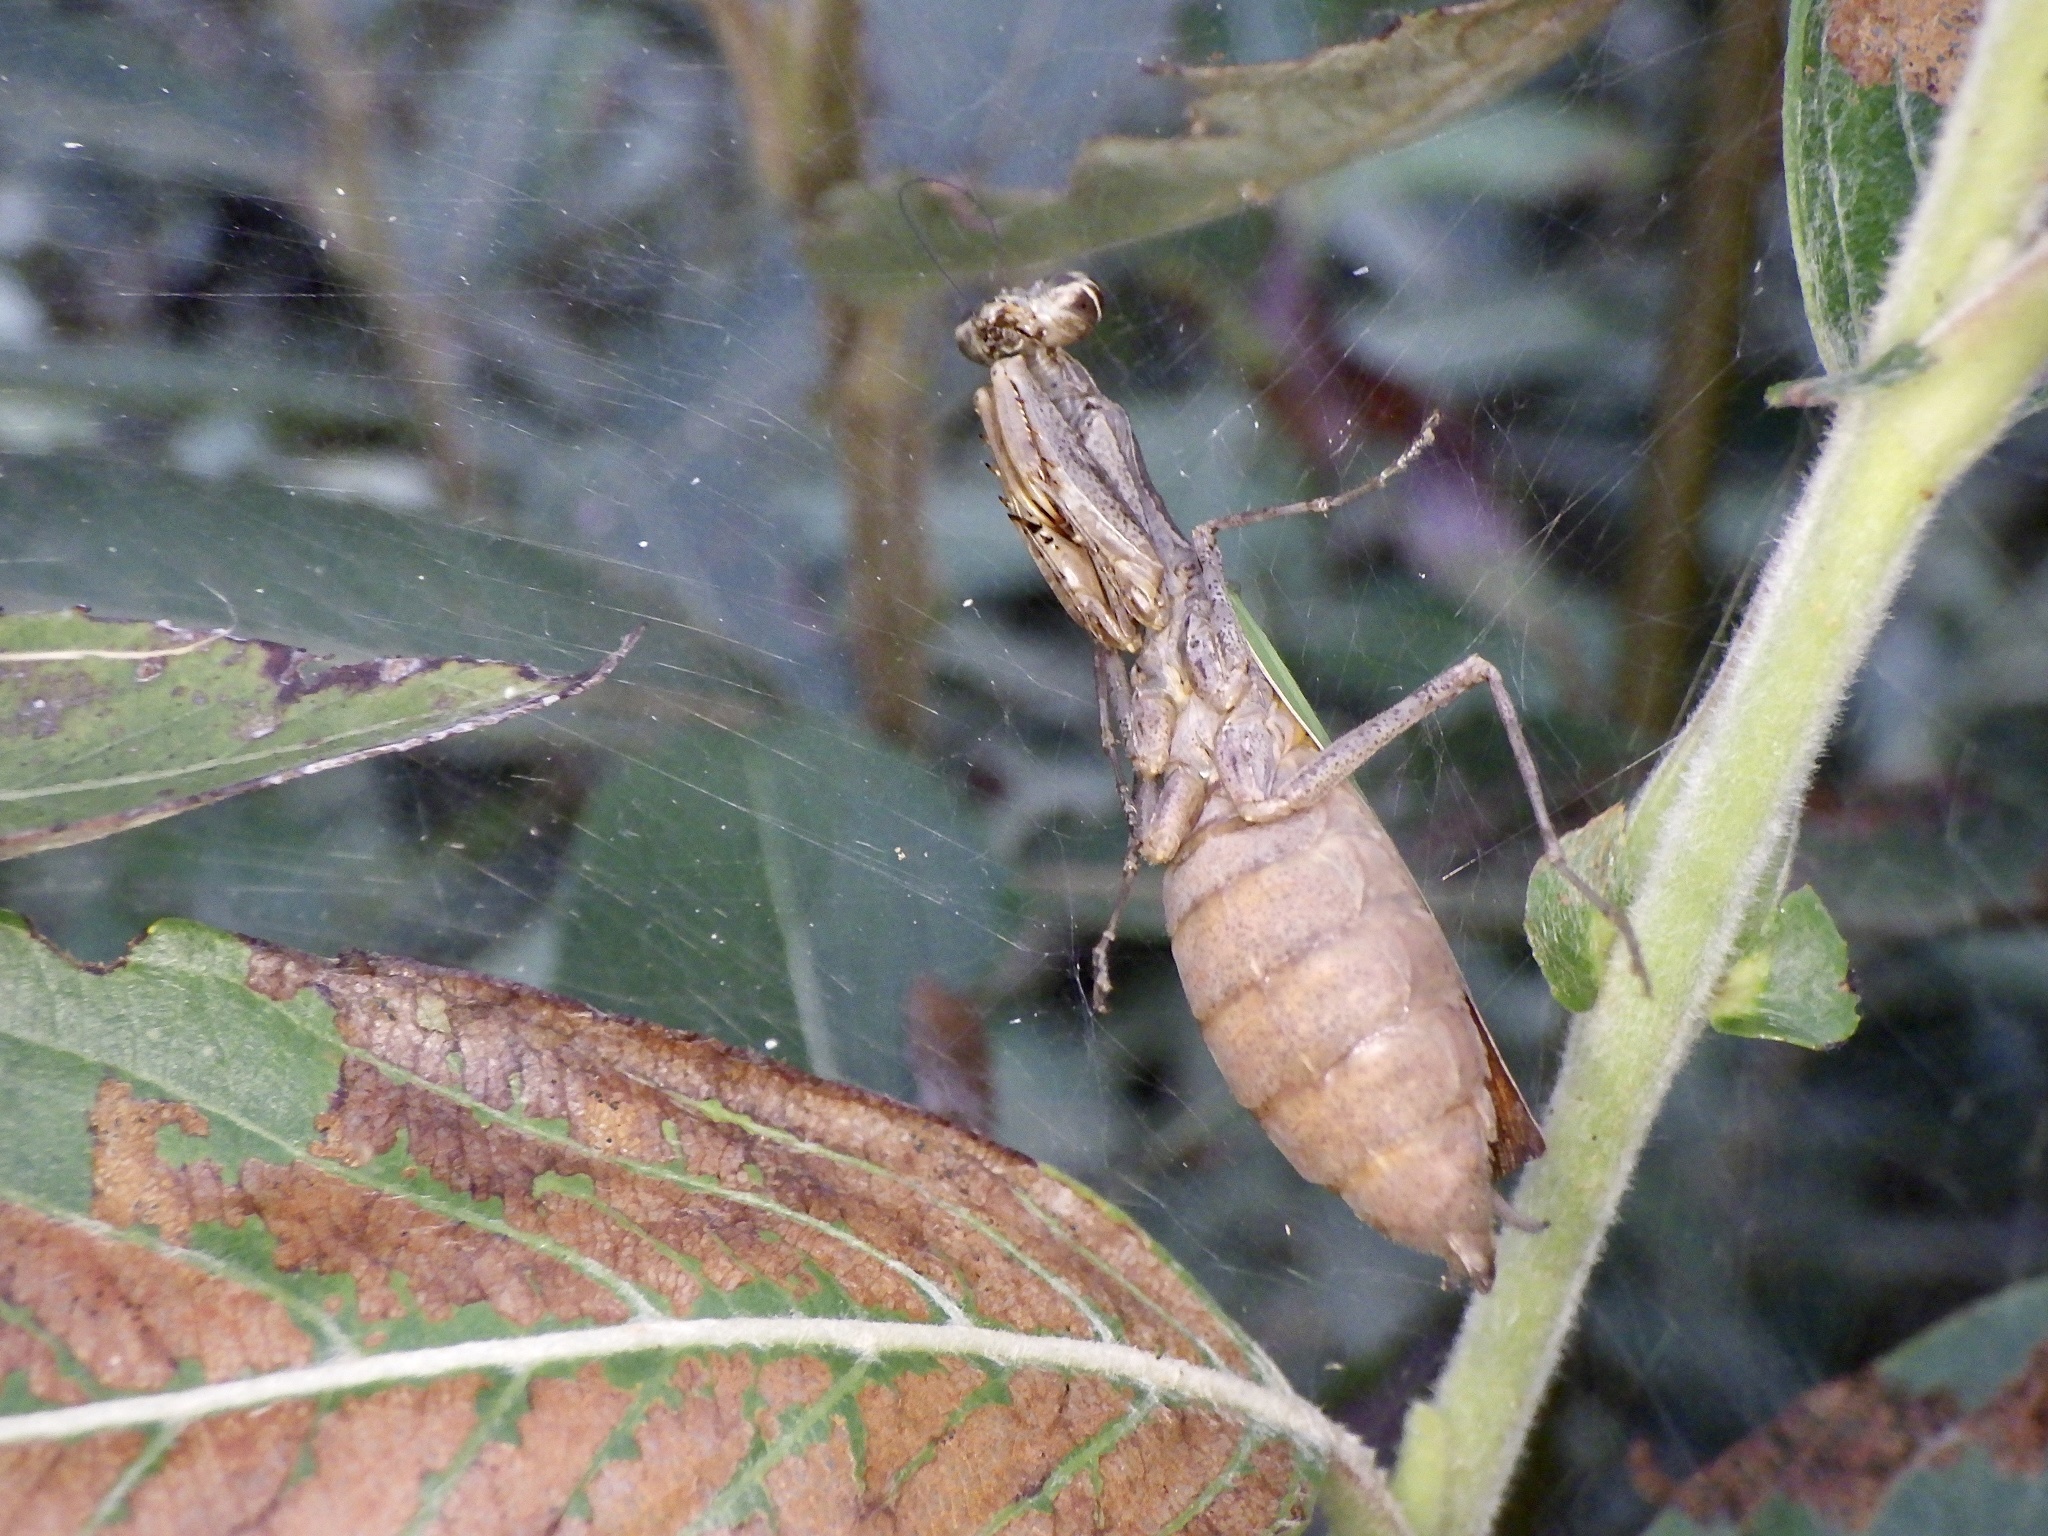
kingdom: Animalia
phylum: Arthropoda
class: Insecta
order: Mantodea
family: Hymenopodidae
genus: Acromantis
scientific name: Acromantis japonica
